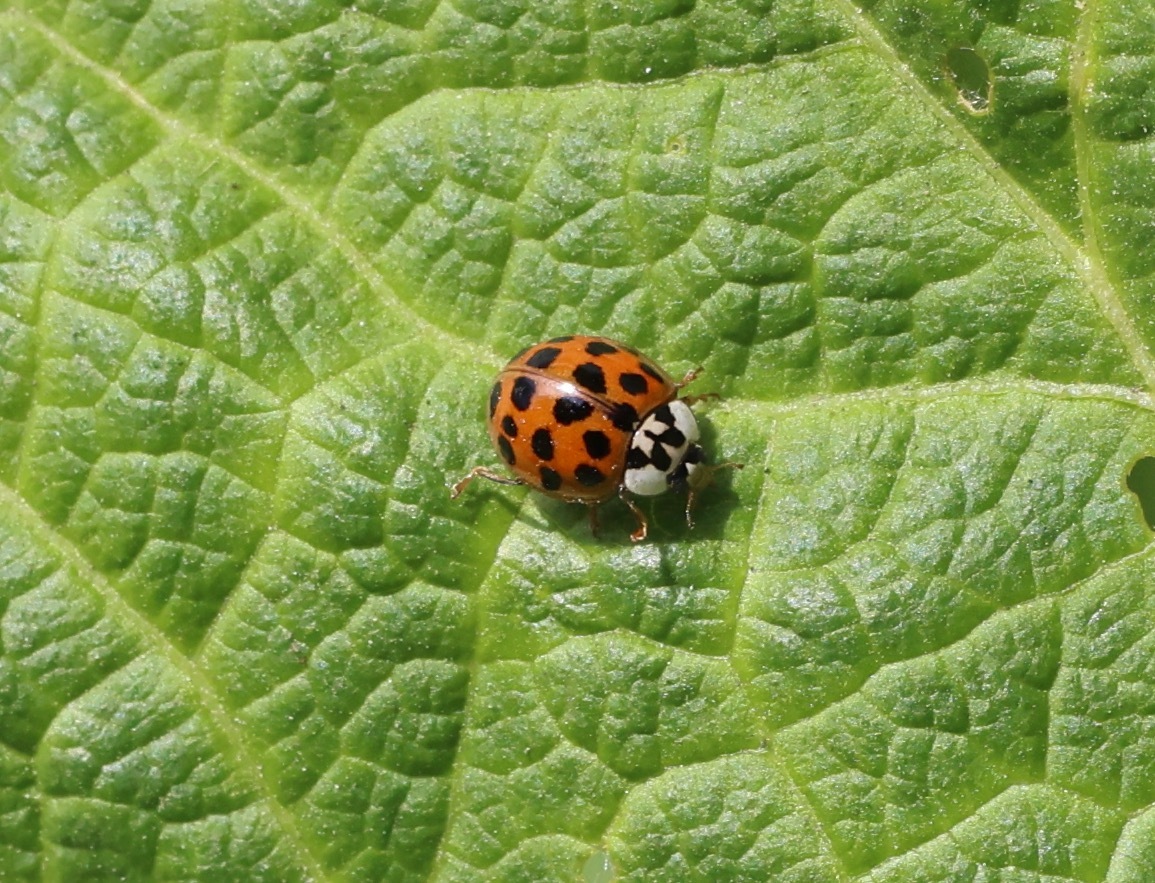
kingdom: Animalia
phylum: Arthropoda
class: Insecta
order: Coleoptera
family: Coccinellidae
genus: Harmonia
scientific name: Harmonia axyridis
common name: Harlequin ladybird
